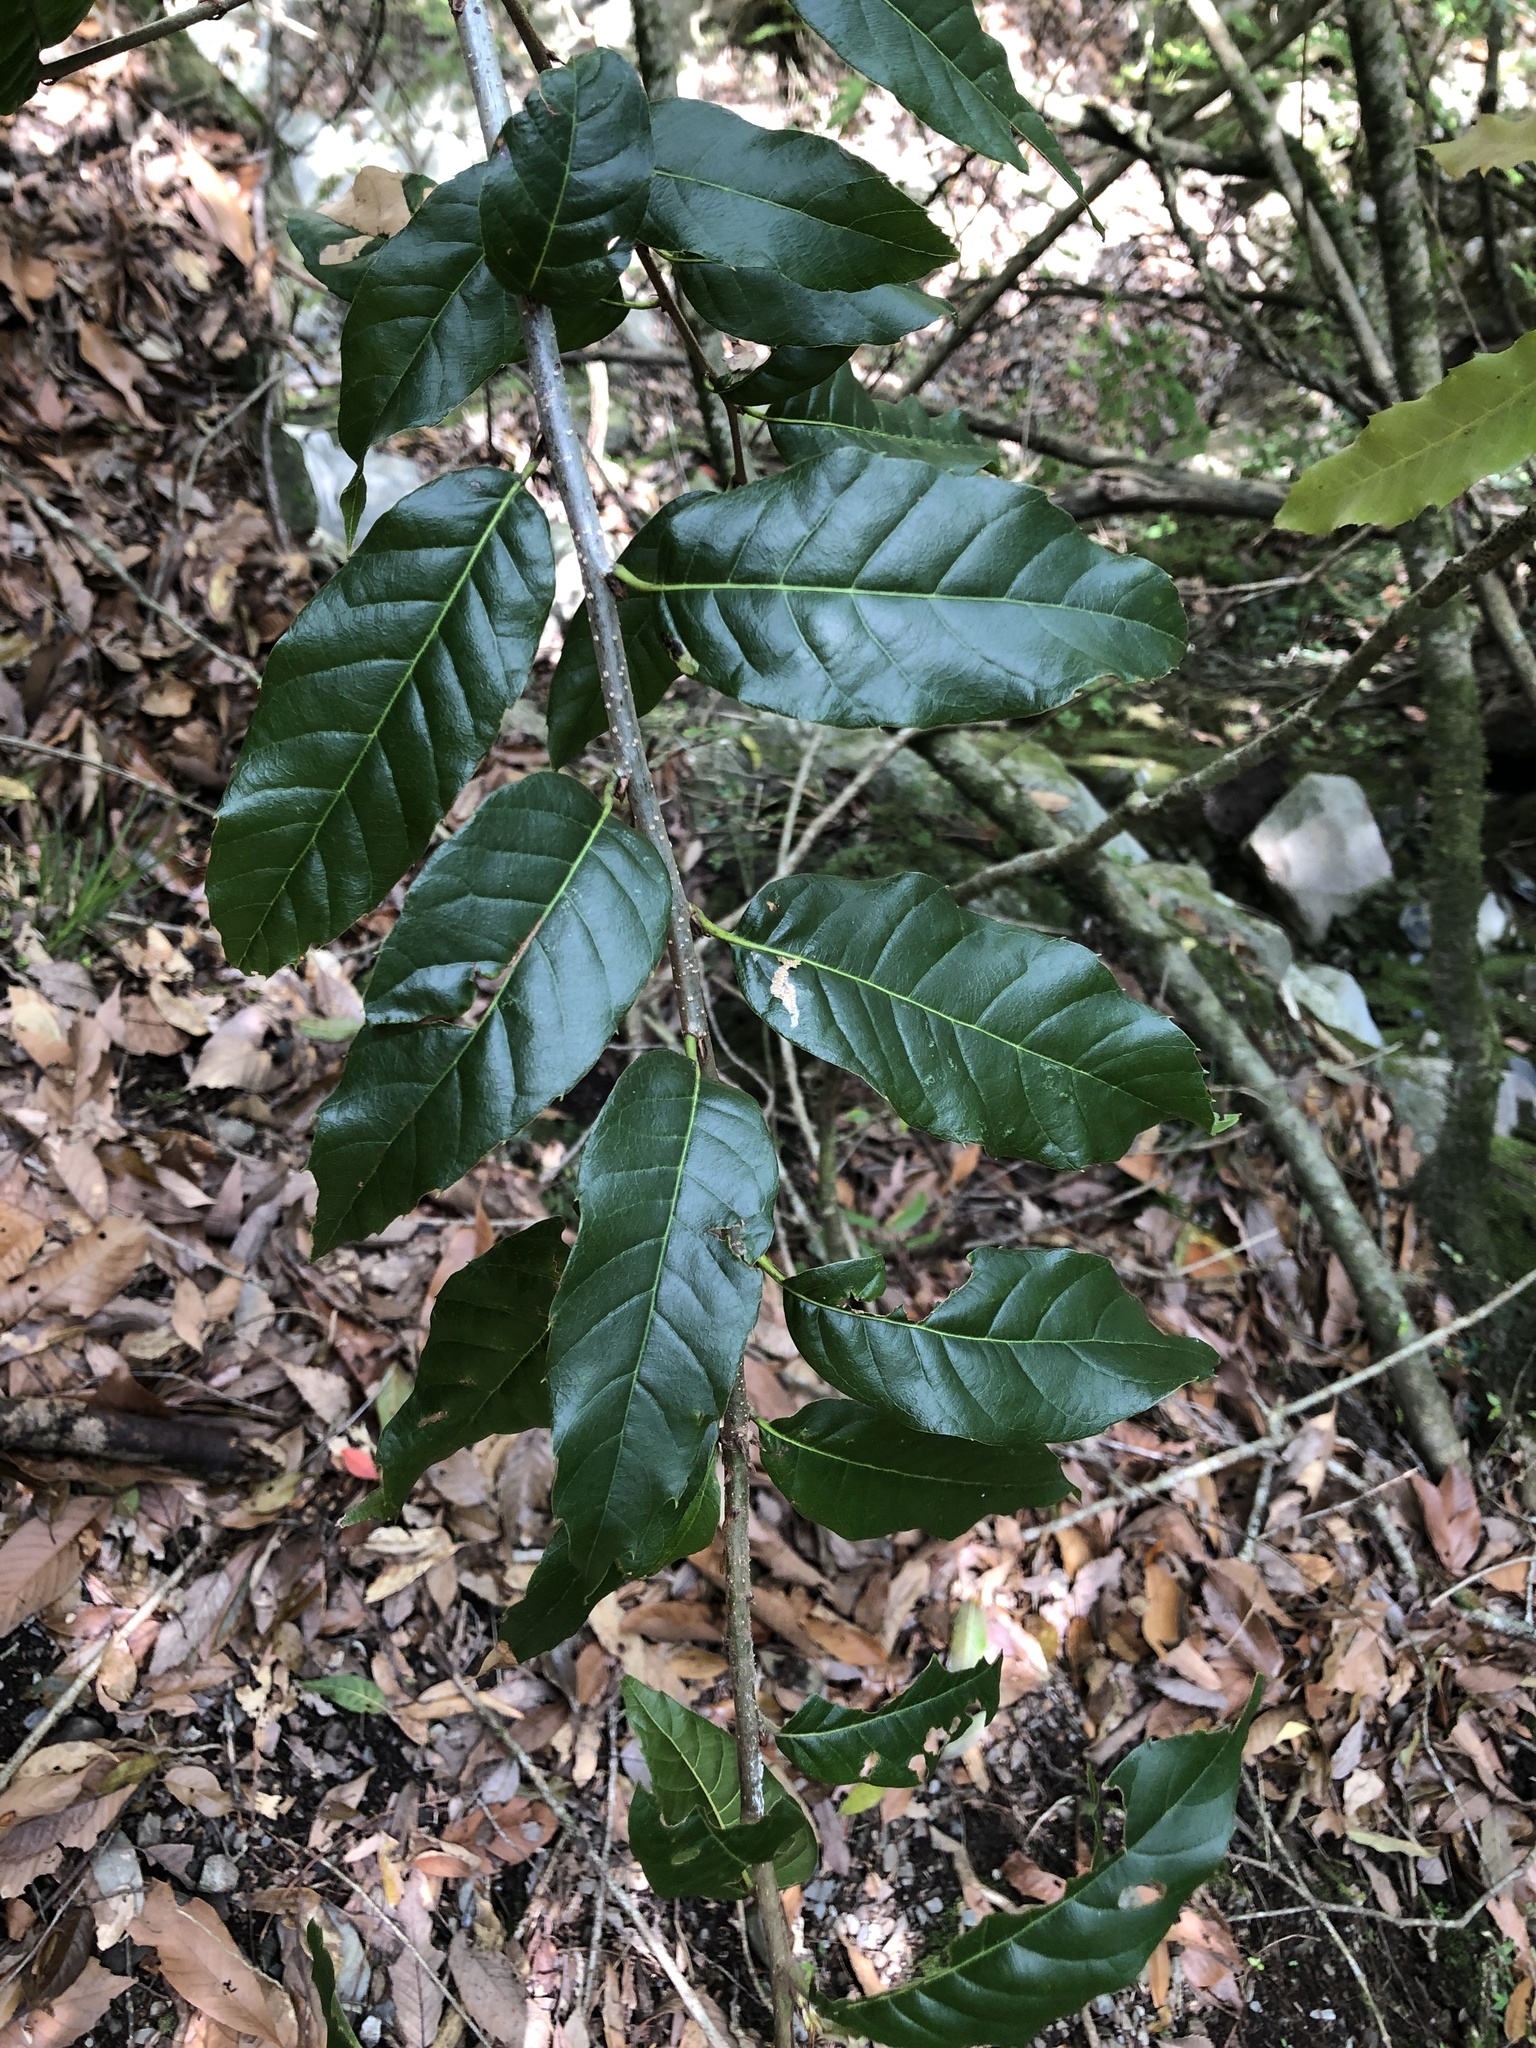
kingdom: Plantae
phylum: Tracheophyta
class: Magnoliopsida
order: Fagales
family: Fagaceae
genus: Quercus
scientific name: Quercus tatakaensis
